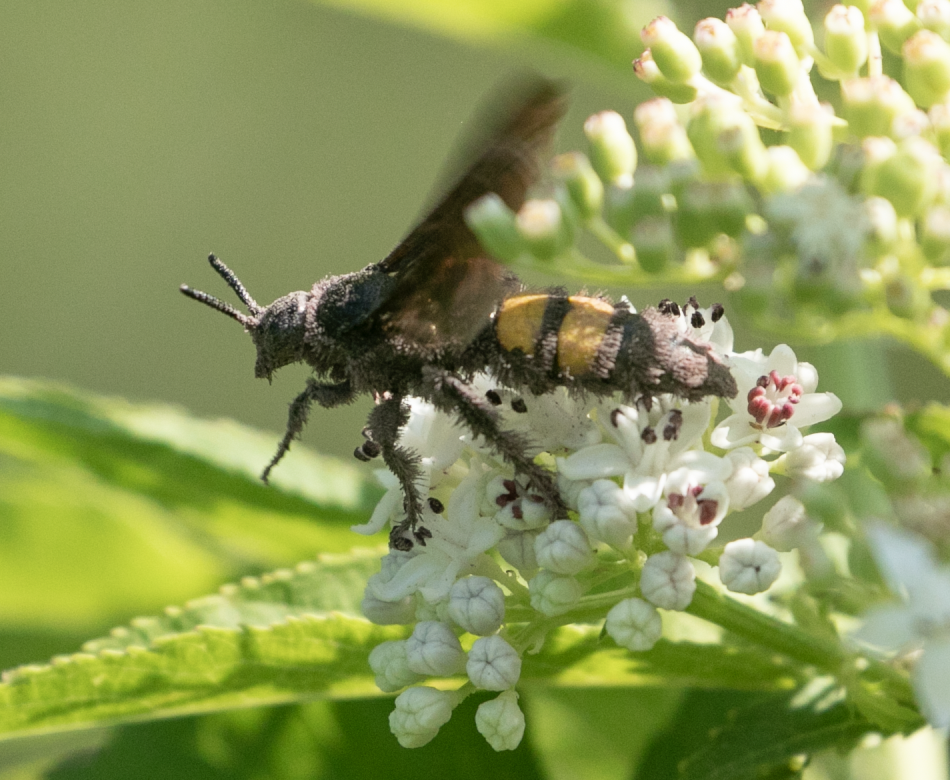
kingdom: Animalia
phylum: Arthropoda
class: Insecta
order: Hymenoptera
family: Scoliidae
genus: Scolia
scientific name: Scolia hirta
